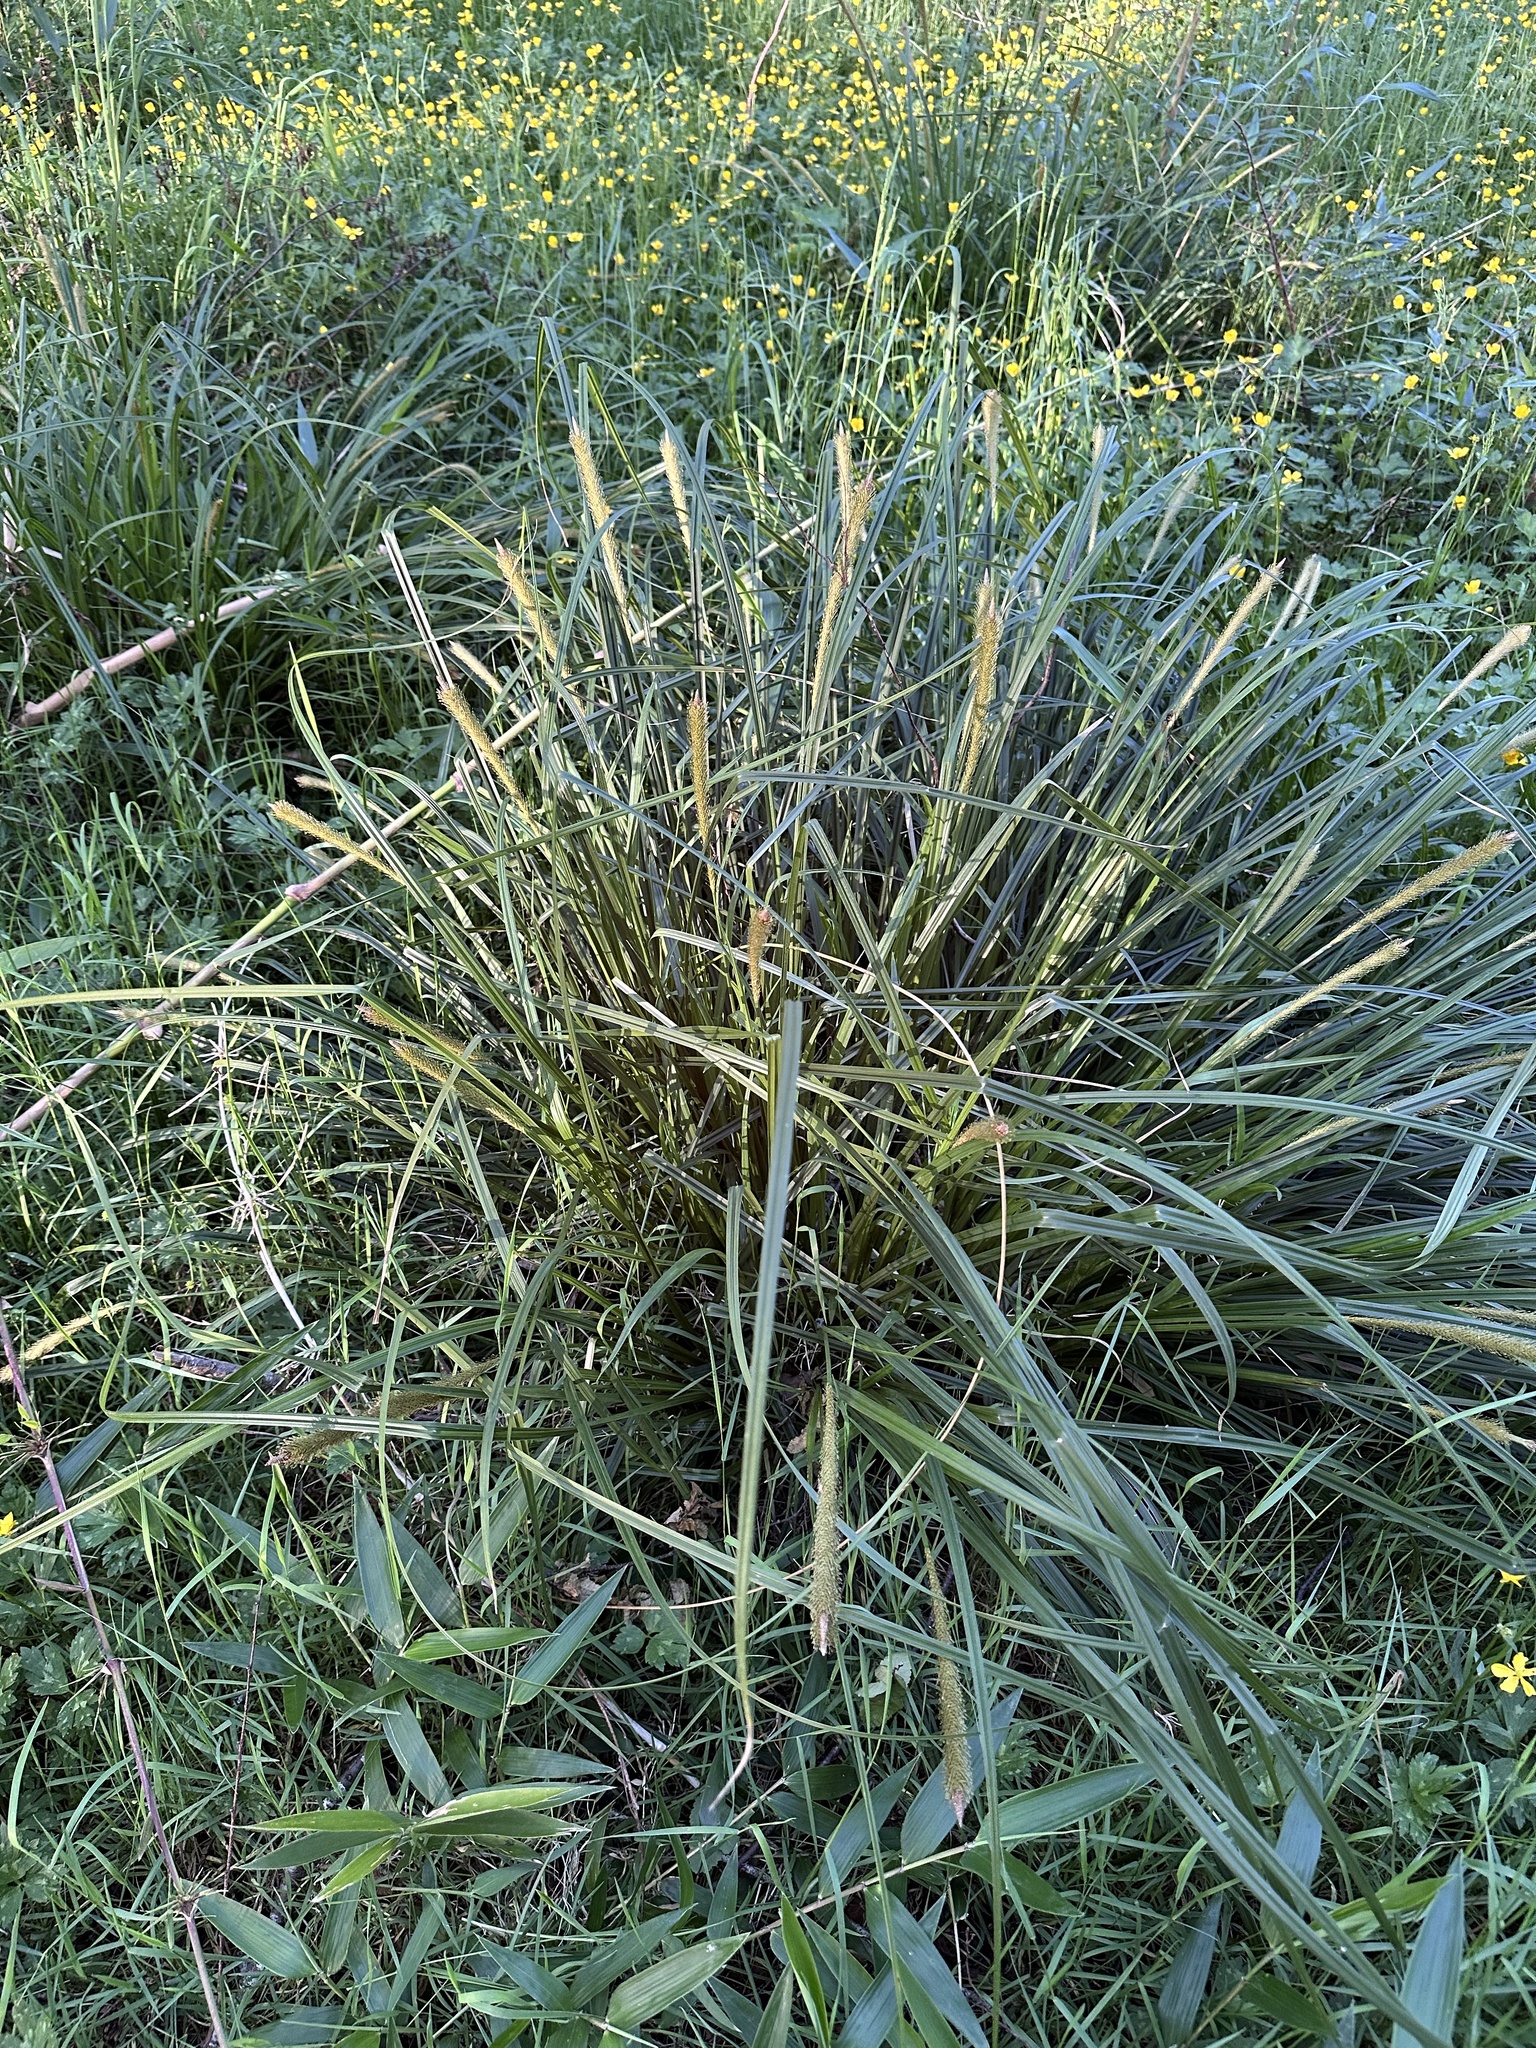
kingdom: Plantae
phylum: Tracheophyta
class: Liliopsida
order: Poales
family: Cyperaceae
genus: Carex
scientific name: Carex phleoides
